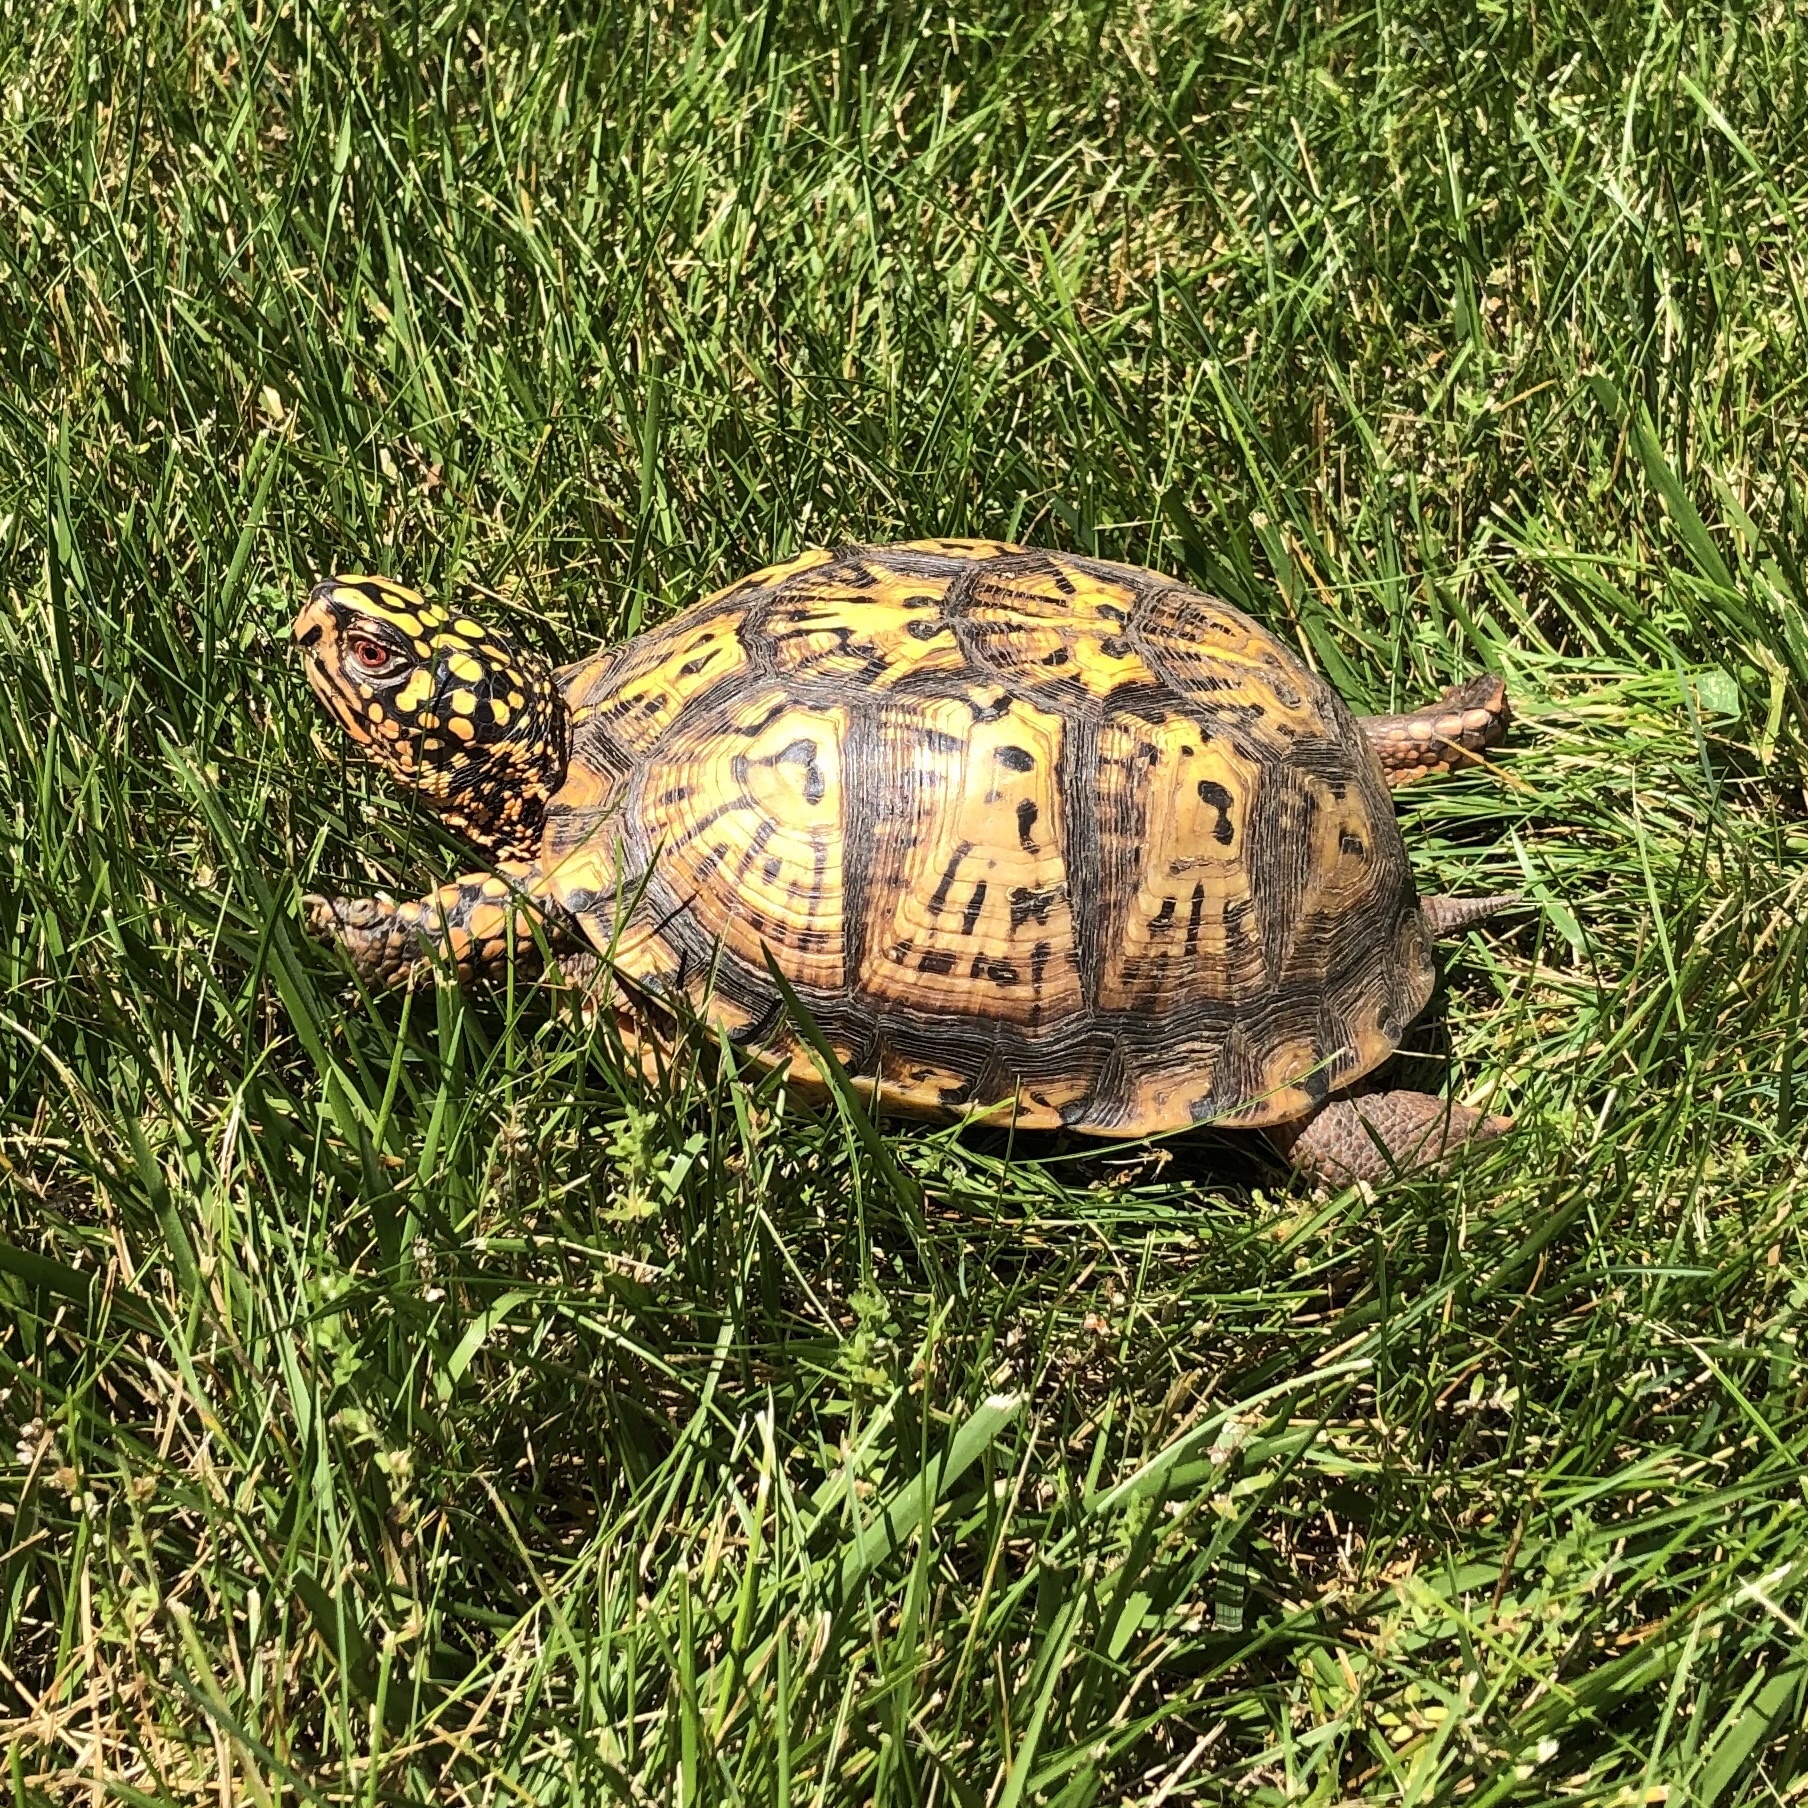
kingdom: Animalia
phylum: Chordata
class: Testudines
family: Emydidae
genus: Terrapene
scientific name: Terrapene carolina
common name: Common box turtle
